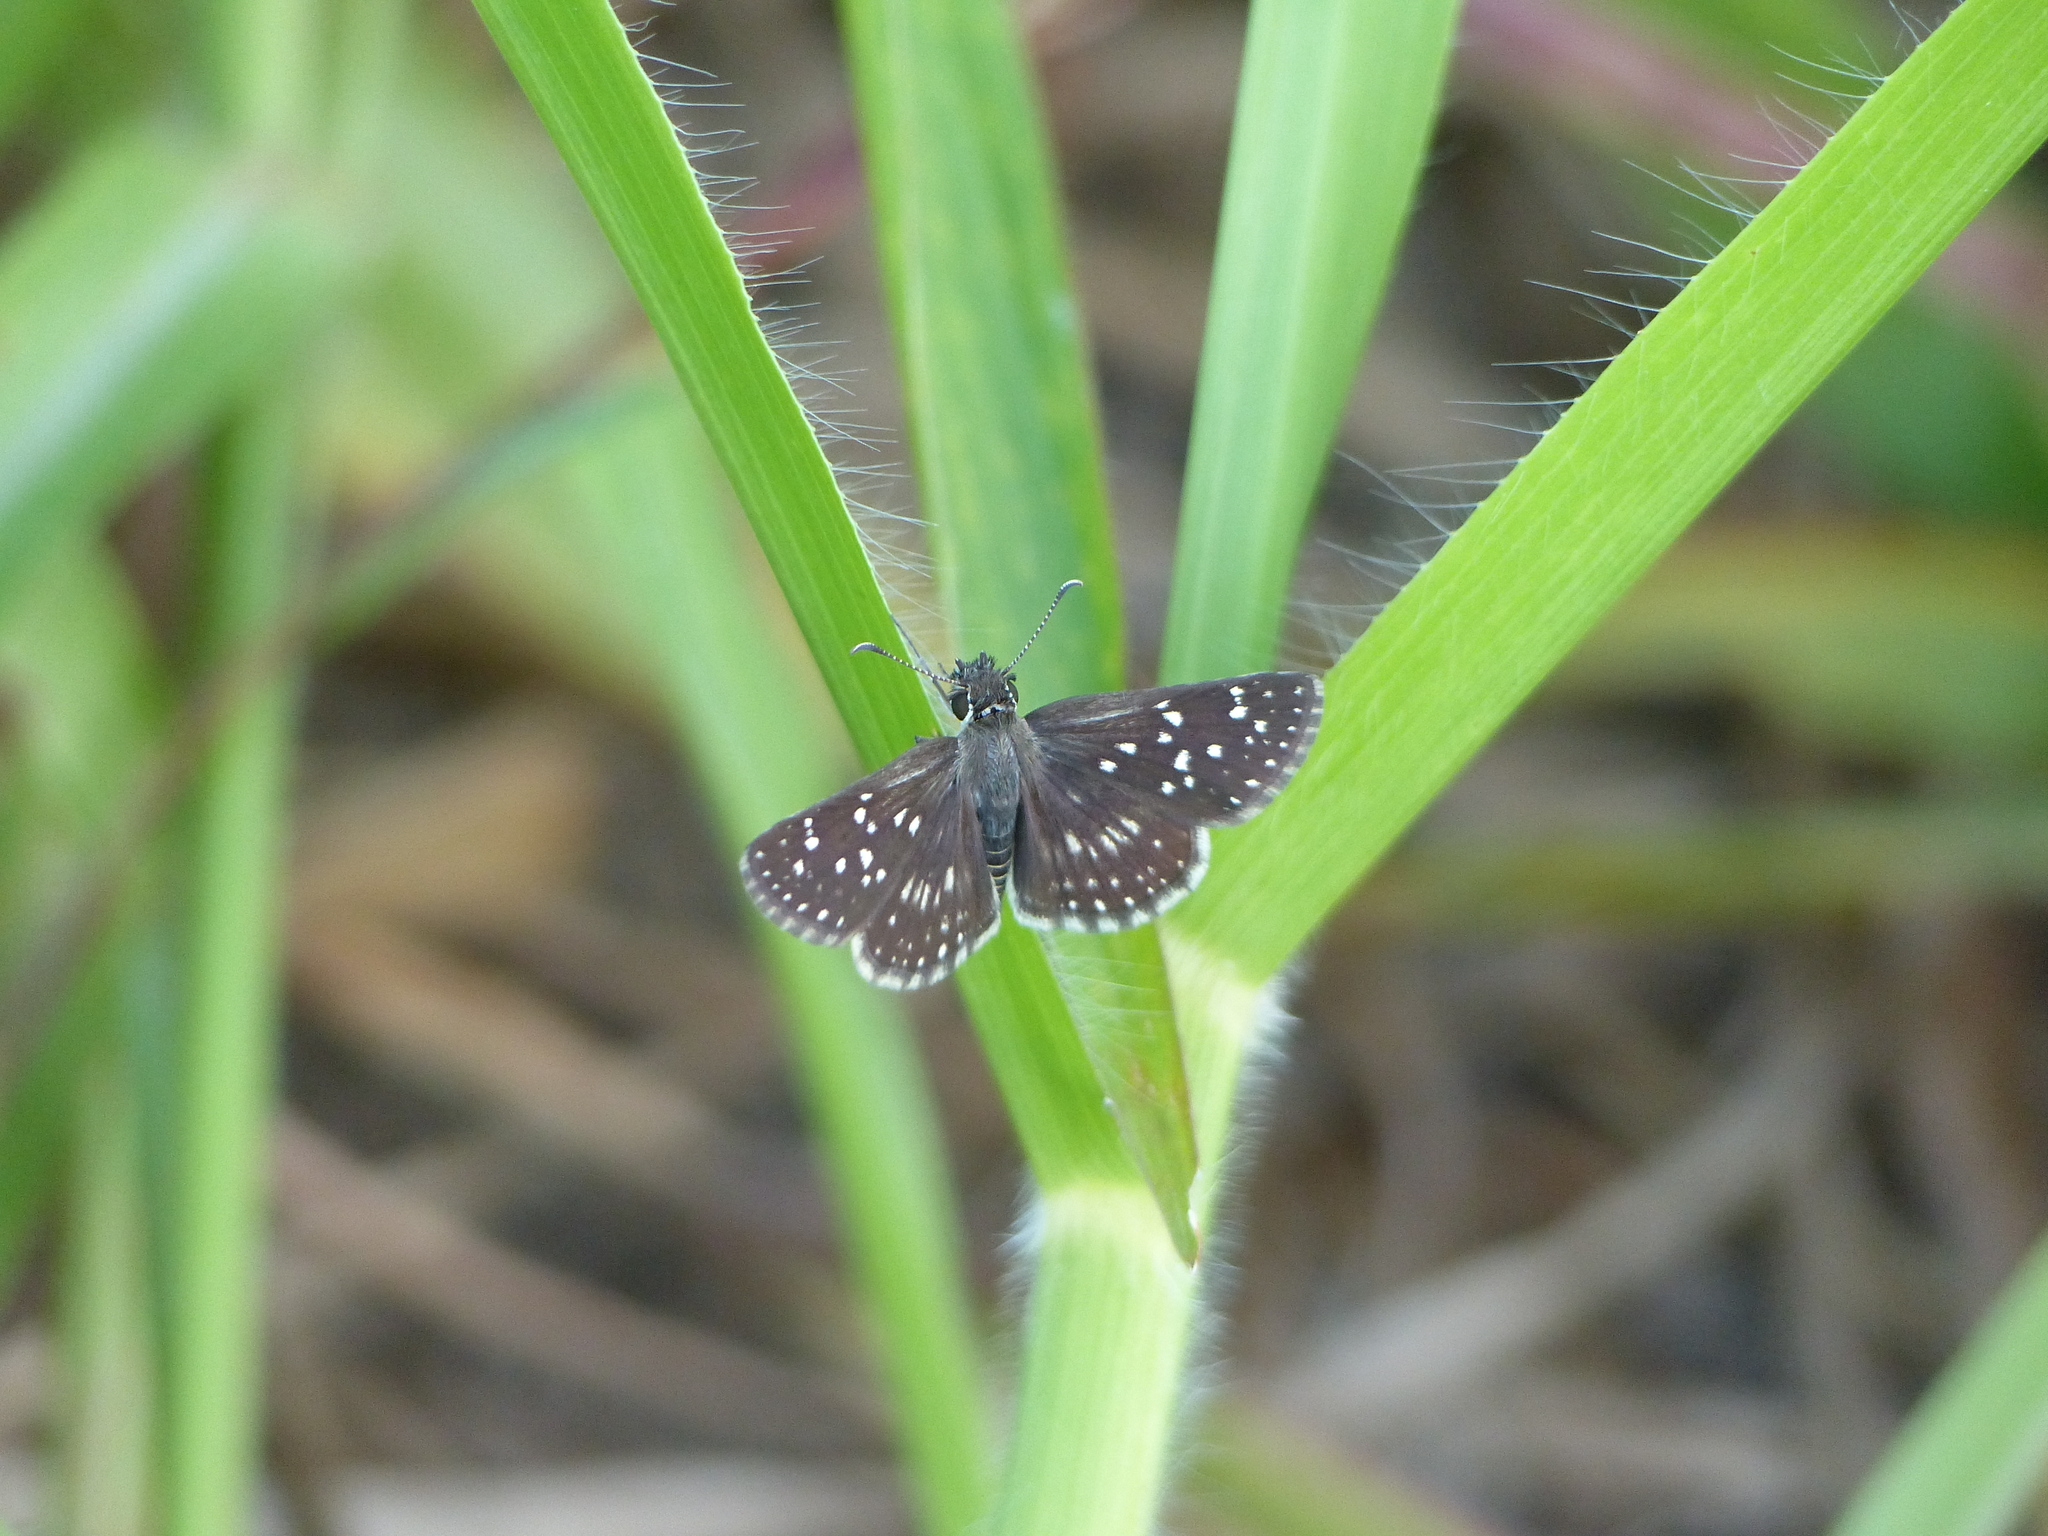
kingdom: Animalia
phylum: Arthropoda
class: Insecta
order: Lepidoptera
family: Hesperiidae
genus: Chirgus
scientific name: Chirgus
